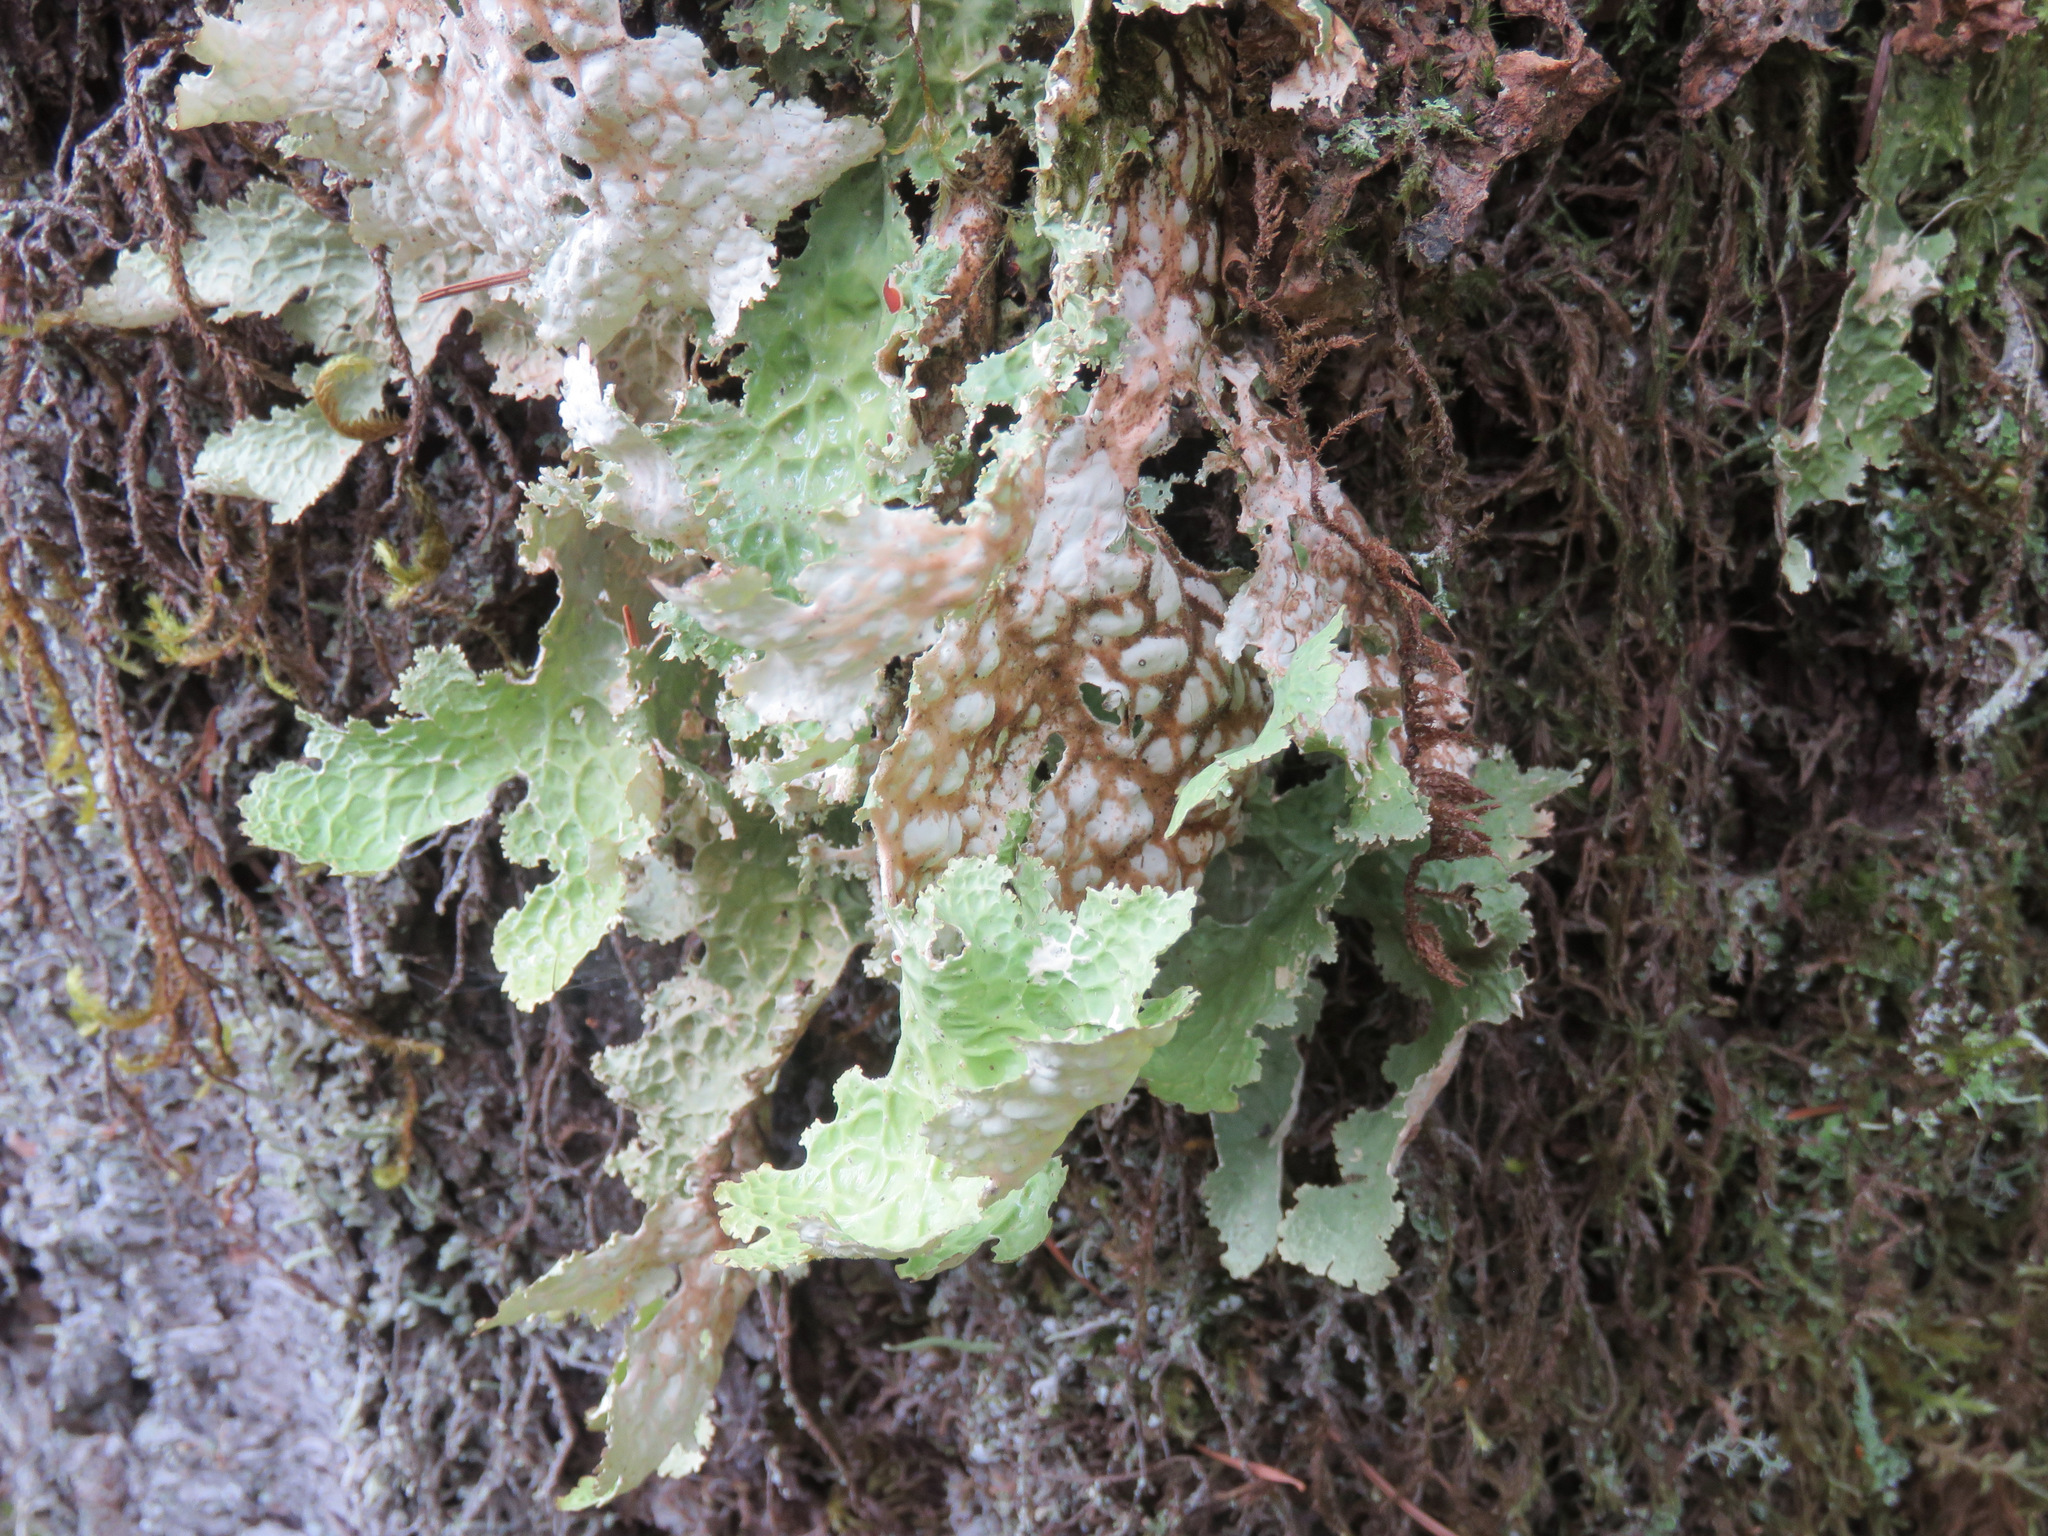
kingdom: Fungi
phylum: Ascomycota
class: Lecanoromycetes
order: Peltigerales
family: Lobariaceae
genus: Lobaria
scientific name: Lobaria oregana
